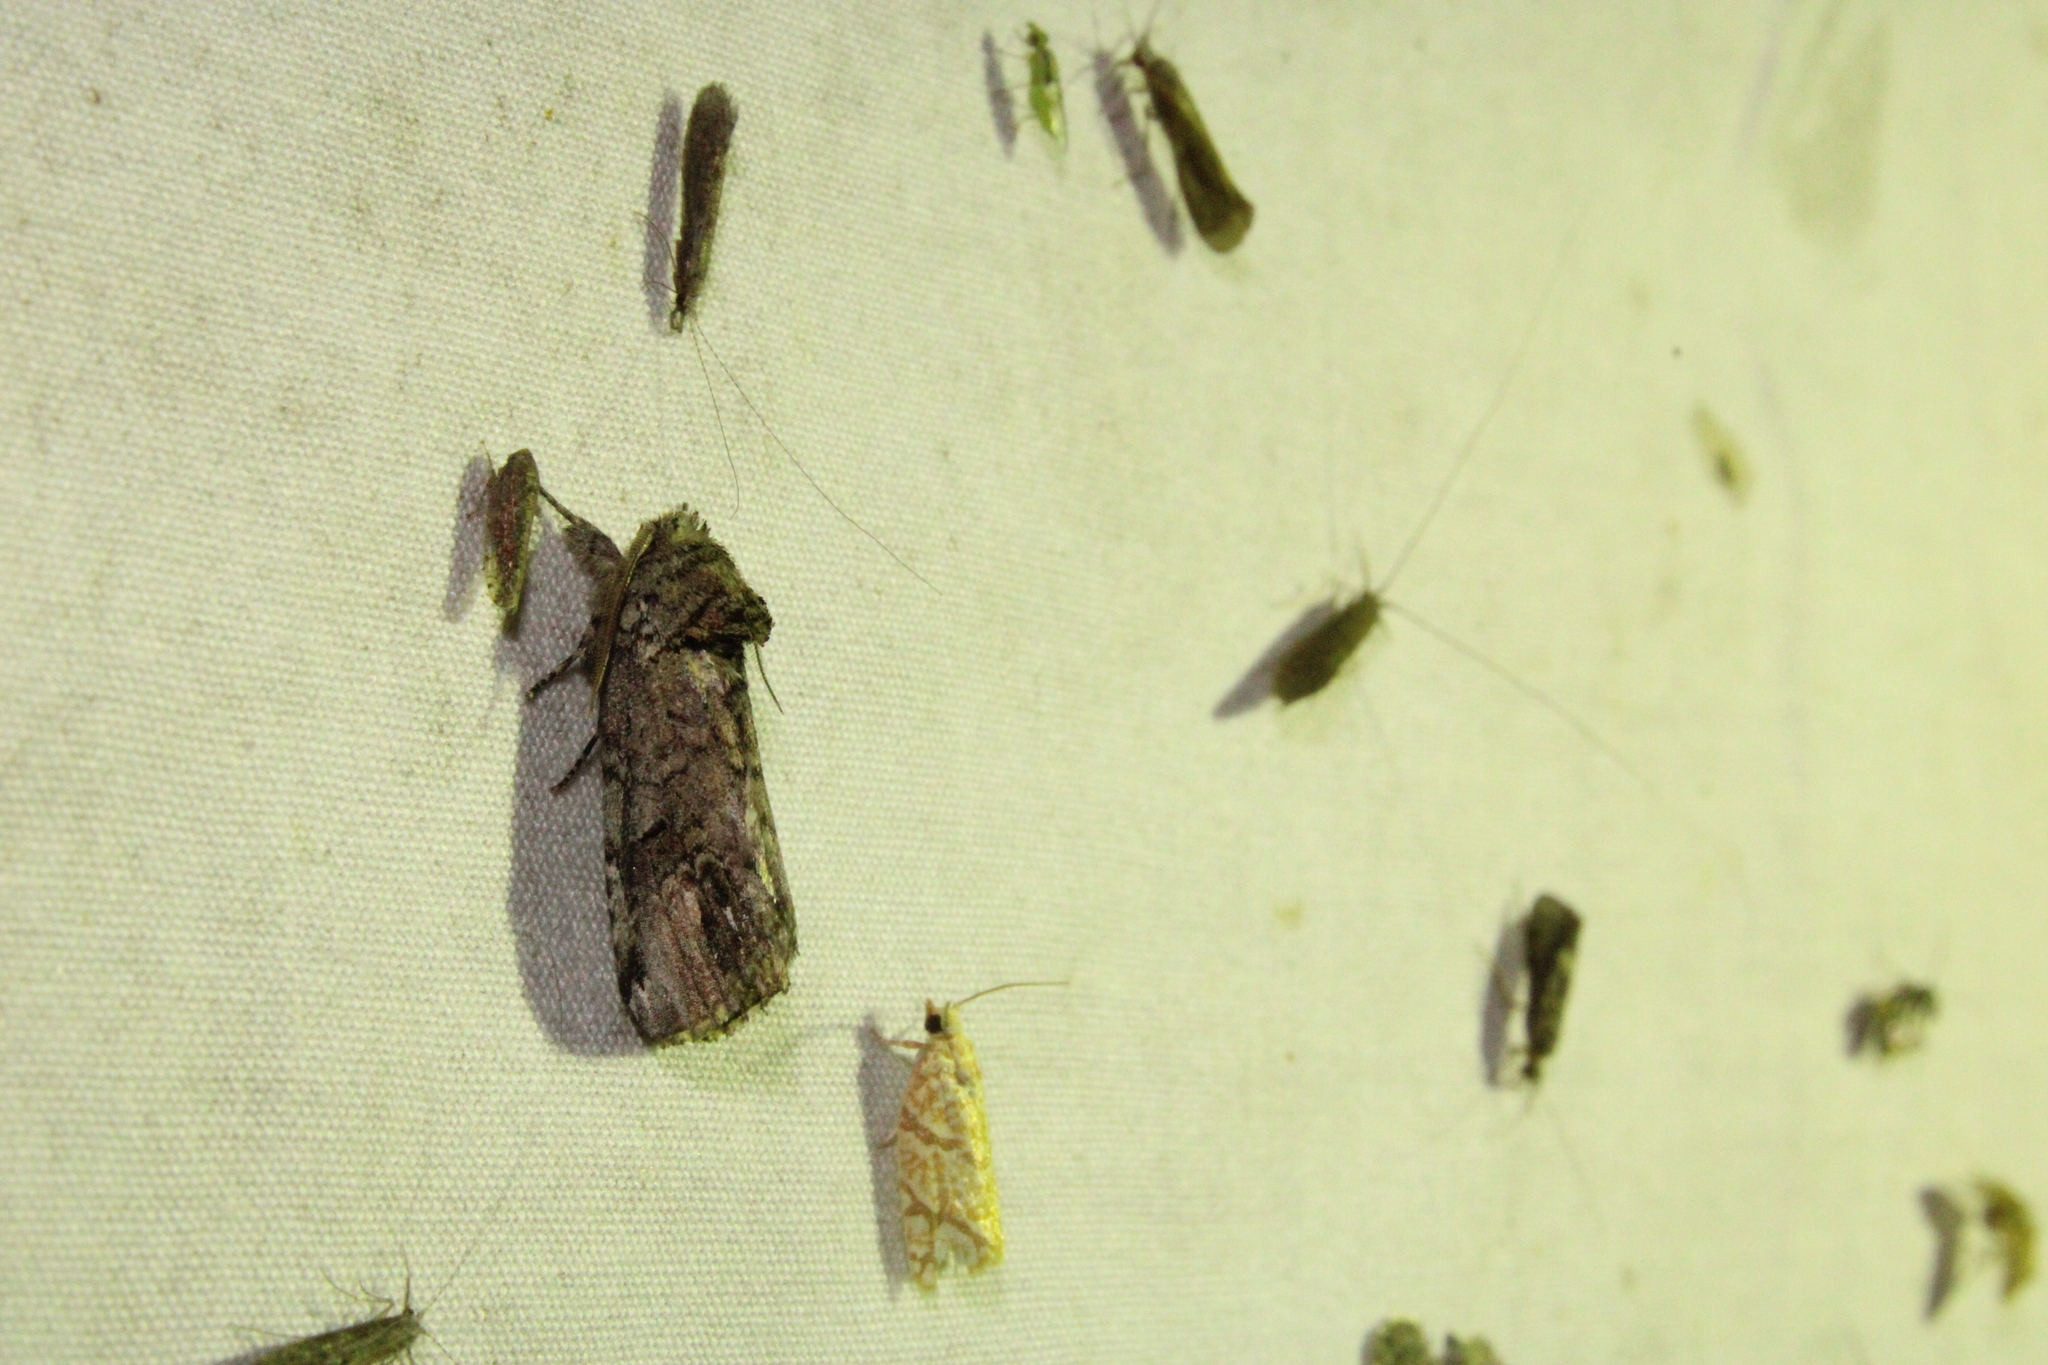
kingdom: Animalia
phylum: Arthropoda
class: Insecta
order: Lepidoptera
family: Notodontidae
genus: Schizura
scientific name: Schizura
